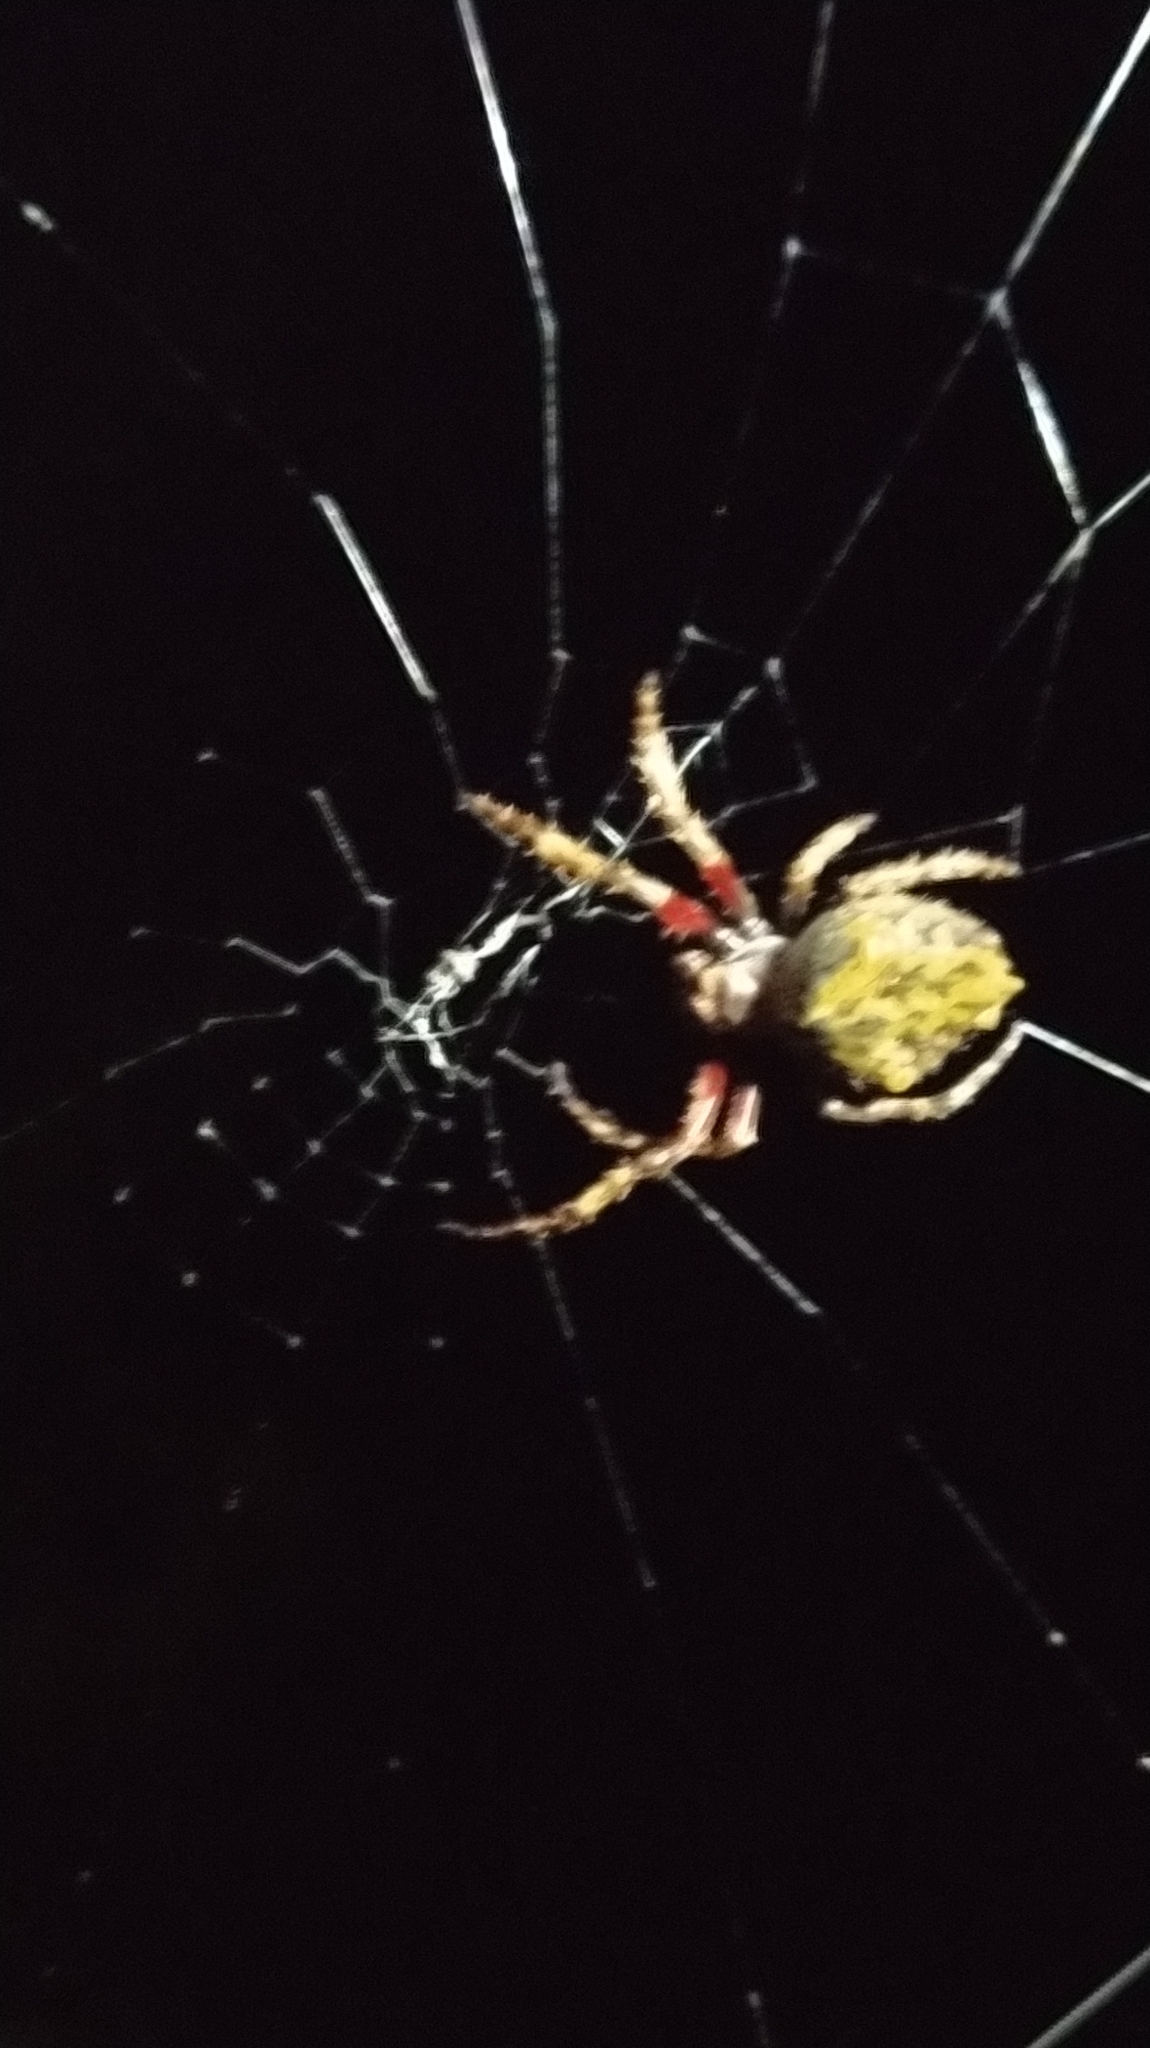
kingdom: Animalia
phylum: Arthropoda
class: Arachnida
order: Araneae
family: Araneidae
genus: Eriophora
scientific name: Eriophora pustulosa
